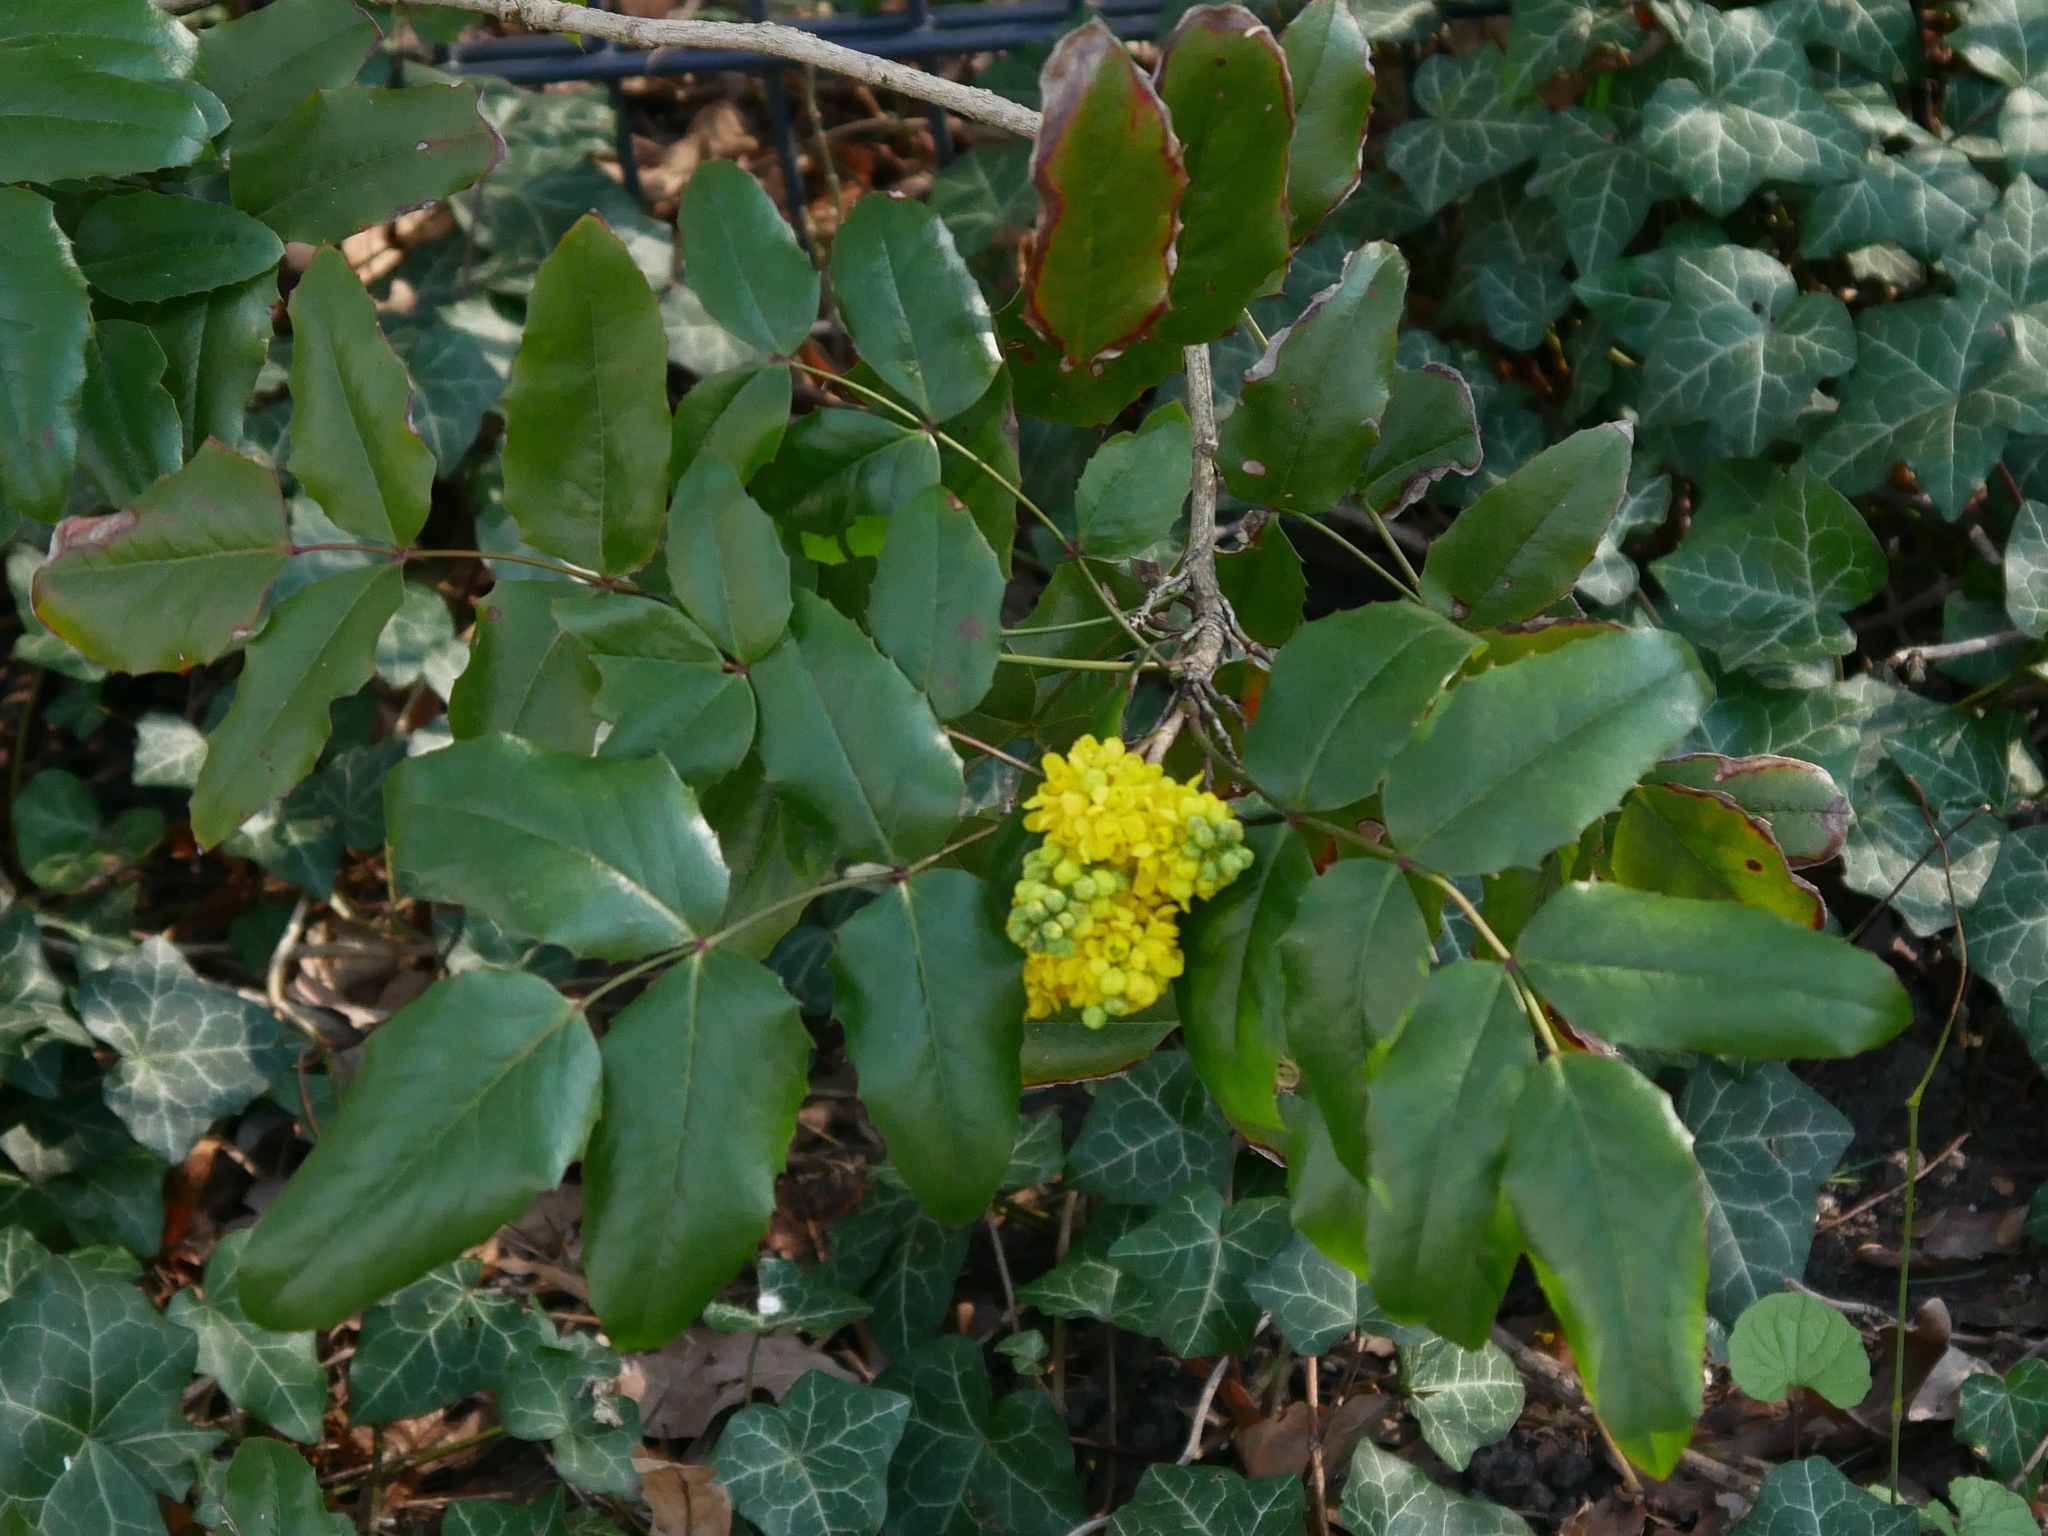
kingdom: Plantae
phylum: Tracheophyta
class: Magnoliopsida
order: Ranunculales
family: Berberidaceae
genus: Mahonia
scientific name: Mahonia aquifolium
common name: Oregon-grape
